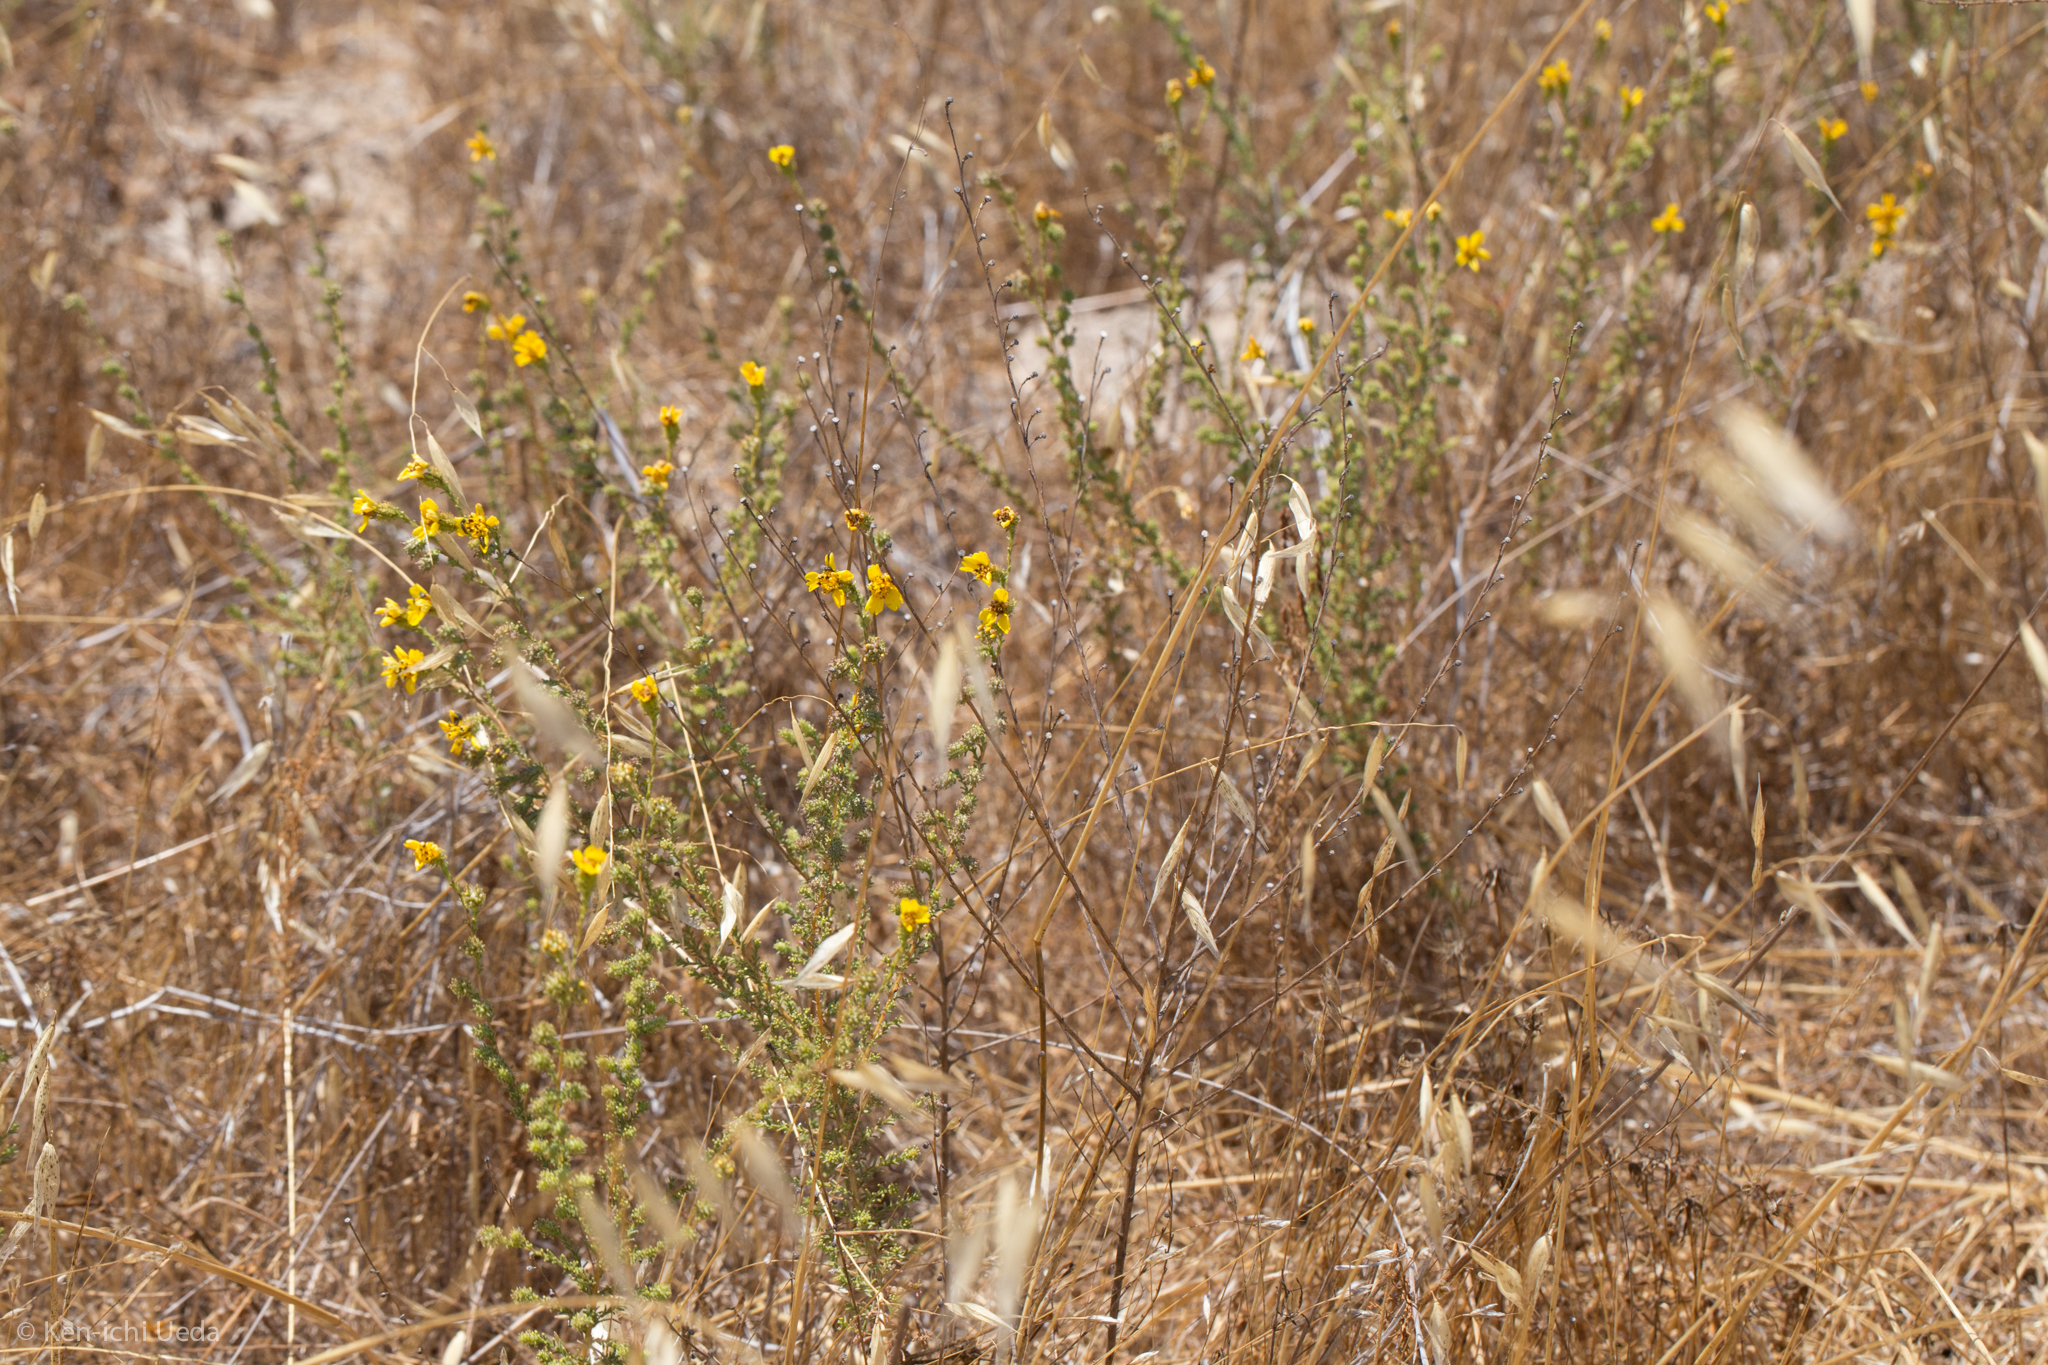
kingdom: Plantae
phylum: Tracheophyta
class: Magnoliopsida
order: Asterales
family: Asteraceae
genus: Holocarpha
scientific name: Holocarpha virgata
